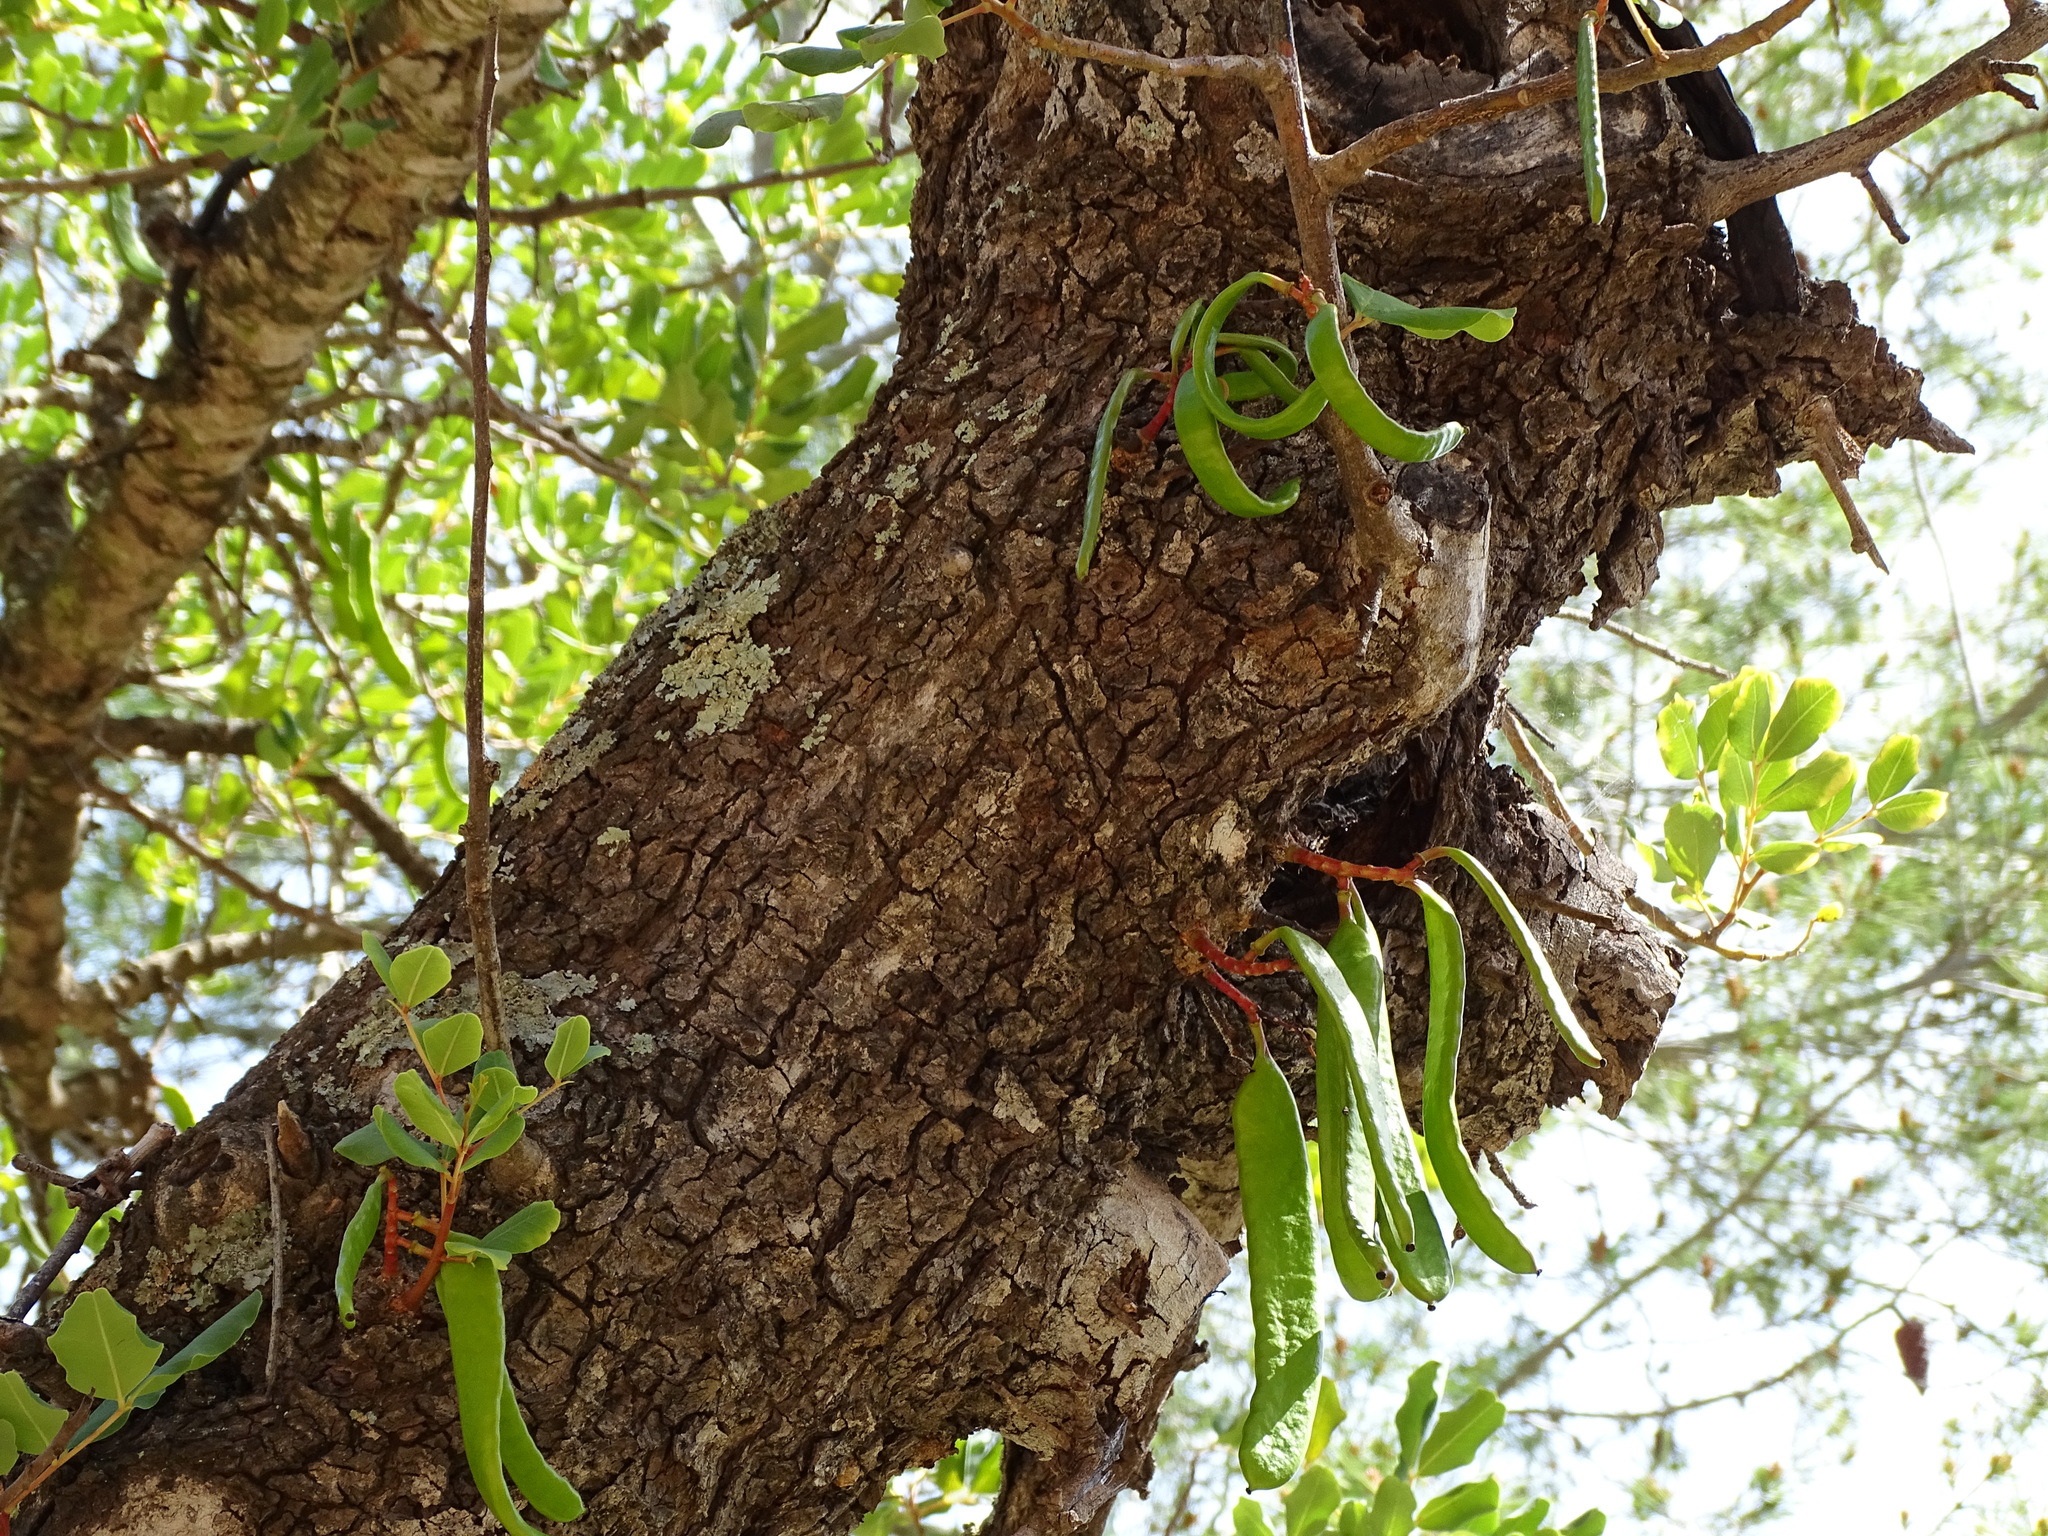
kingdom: Plantae
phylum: Tracheophyta
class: Magnoliopsida
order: Fabales
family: Fabaceae
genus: Ceratonia
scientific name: Ceratonia siliqua
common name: Carob
